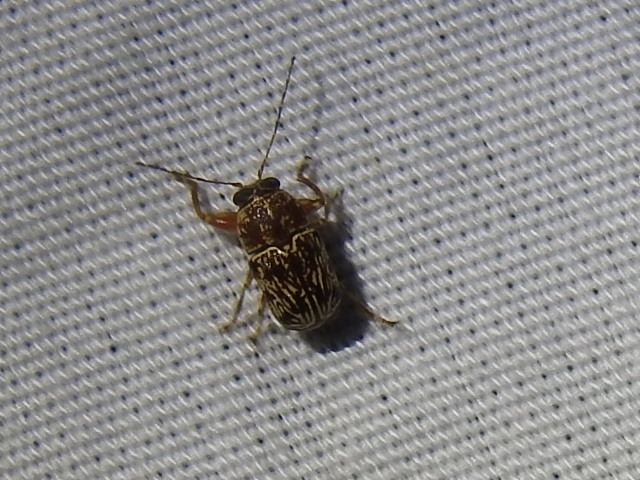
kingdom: Animalia
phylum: Arthropoda
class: Insecta
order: Coleoptera
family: Chrysomelidae
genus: Pachybrachis
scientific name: Pachybrachis
